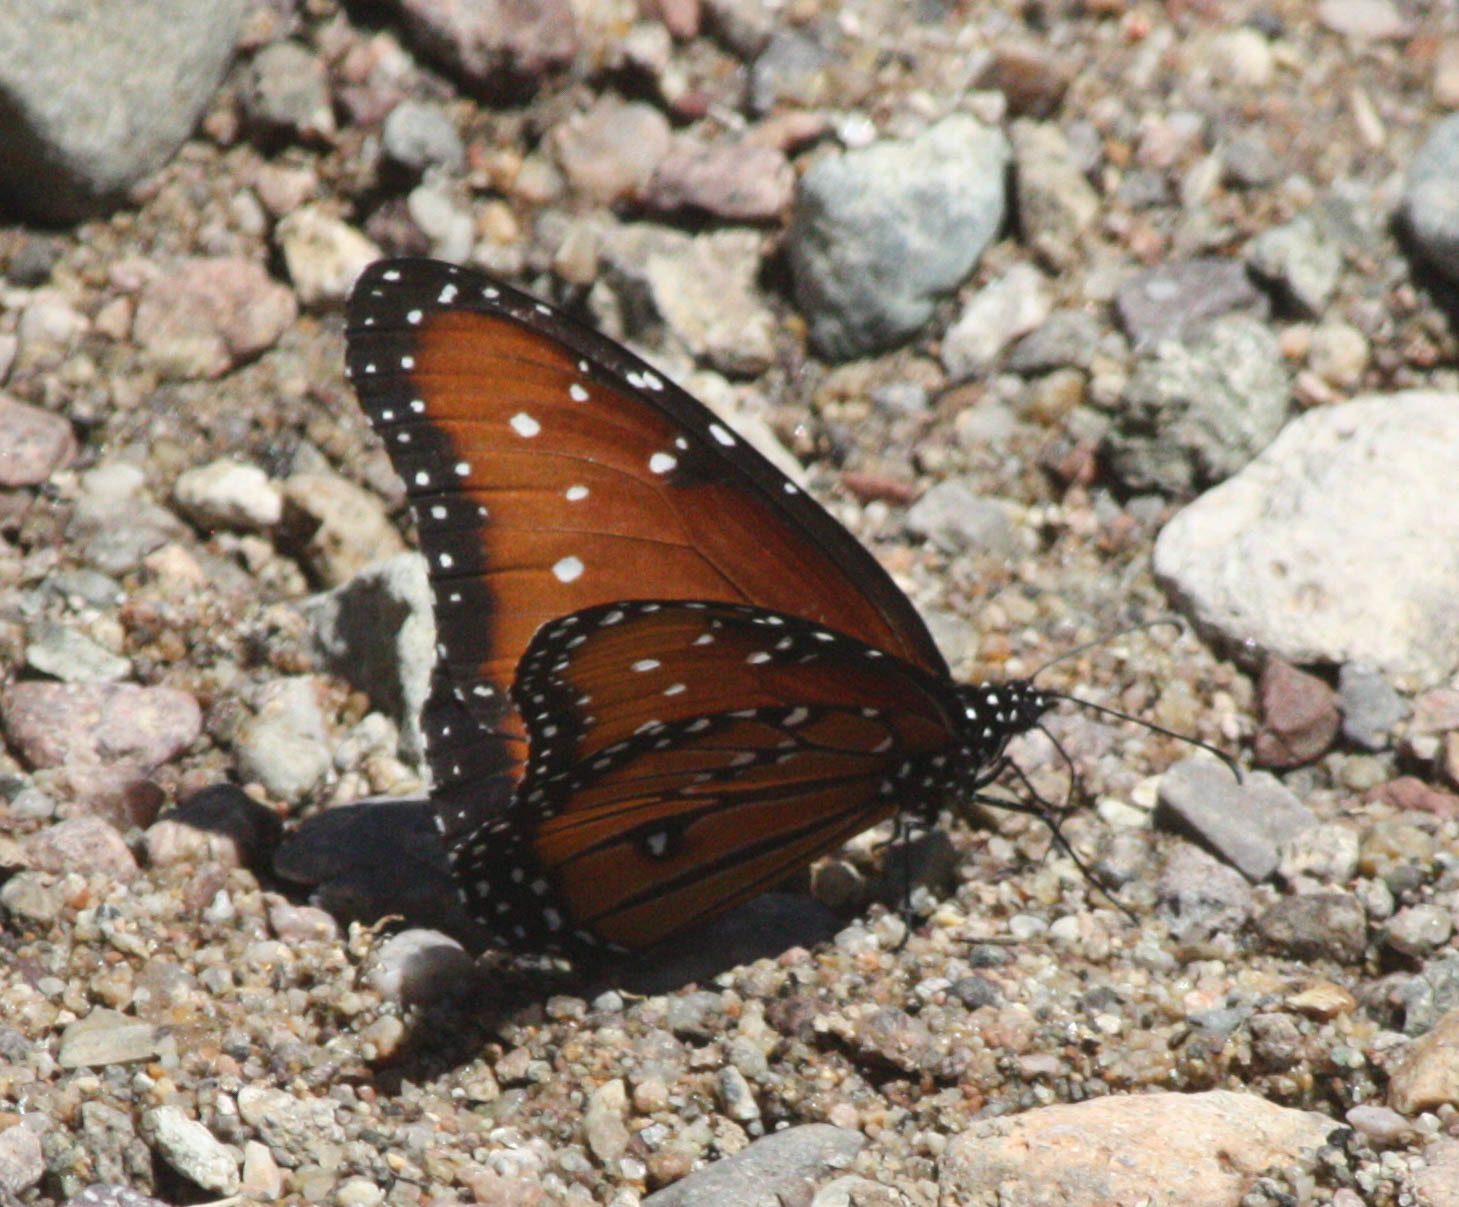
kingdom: Animalia
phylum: Arthropoda
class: Insecta
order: Lepidoptera
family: Nymphalidae
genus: Danaus
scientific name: Danaus gilippus
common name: Queen
